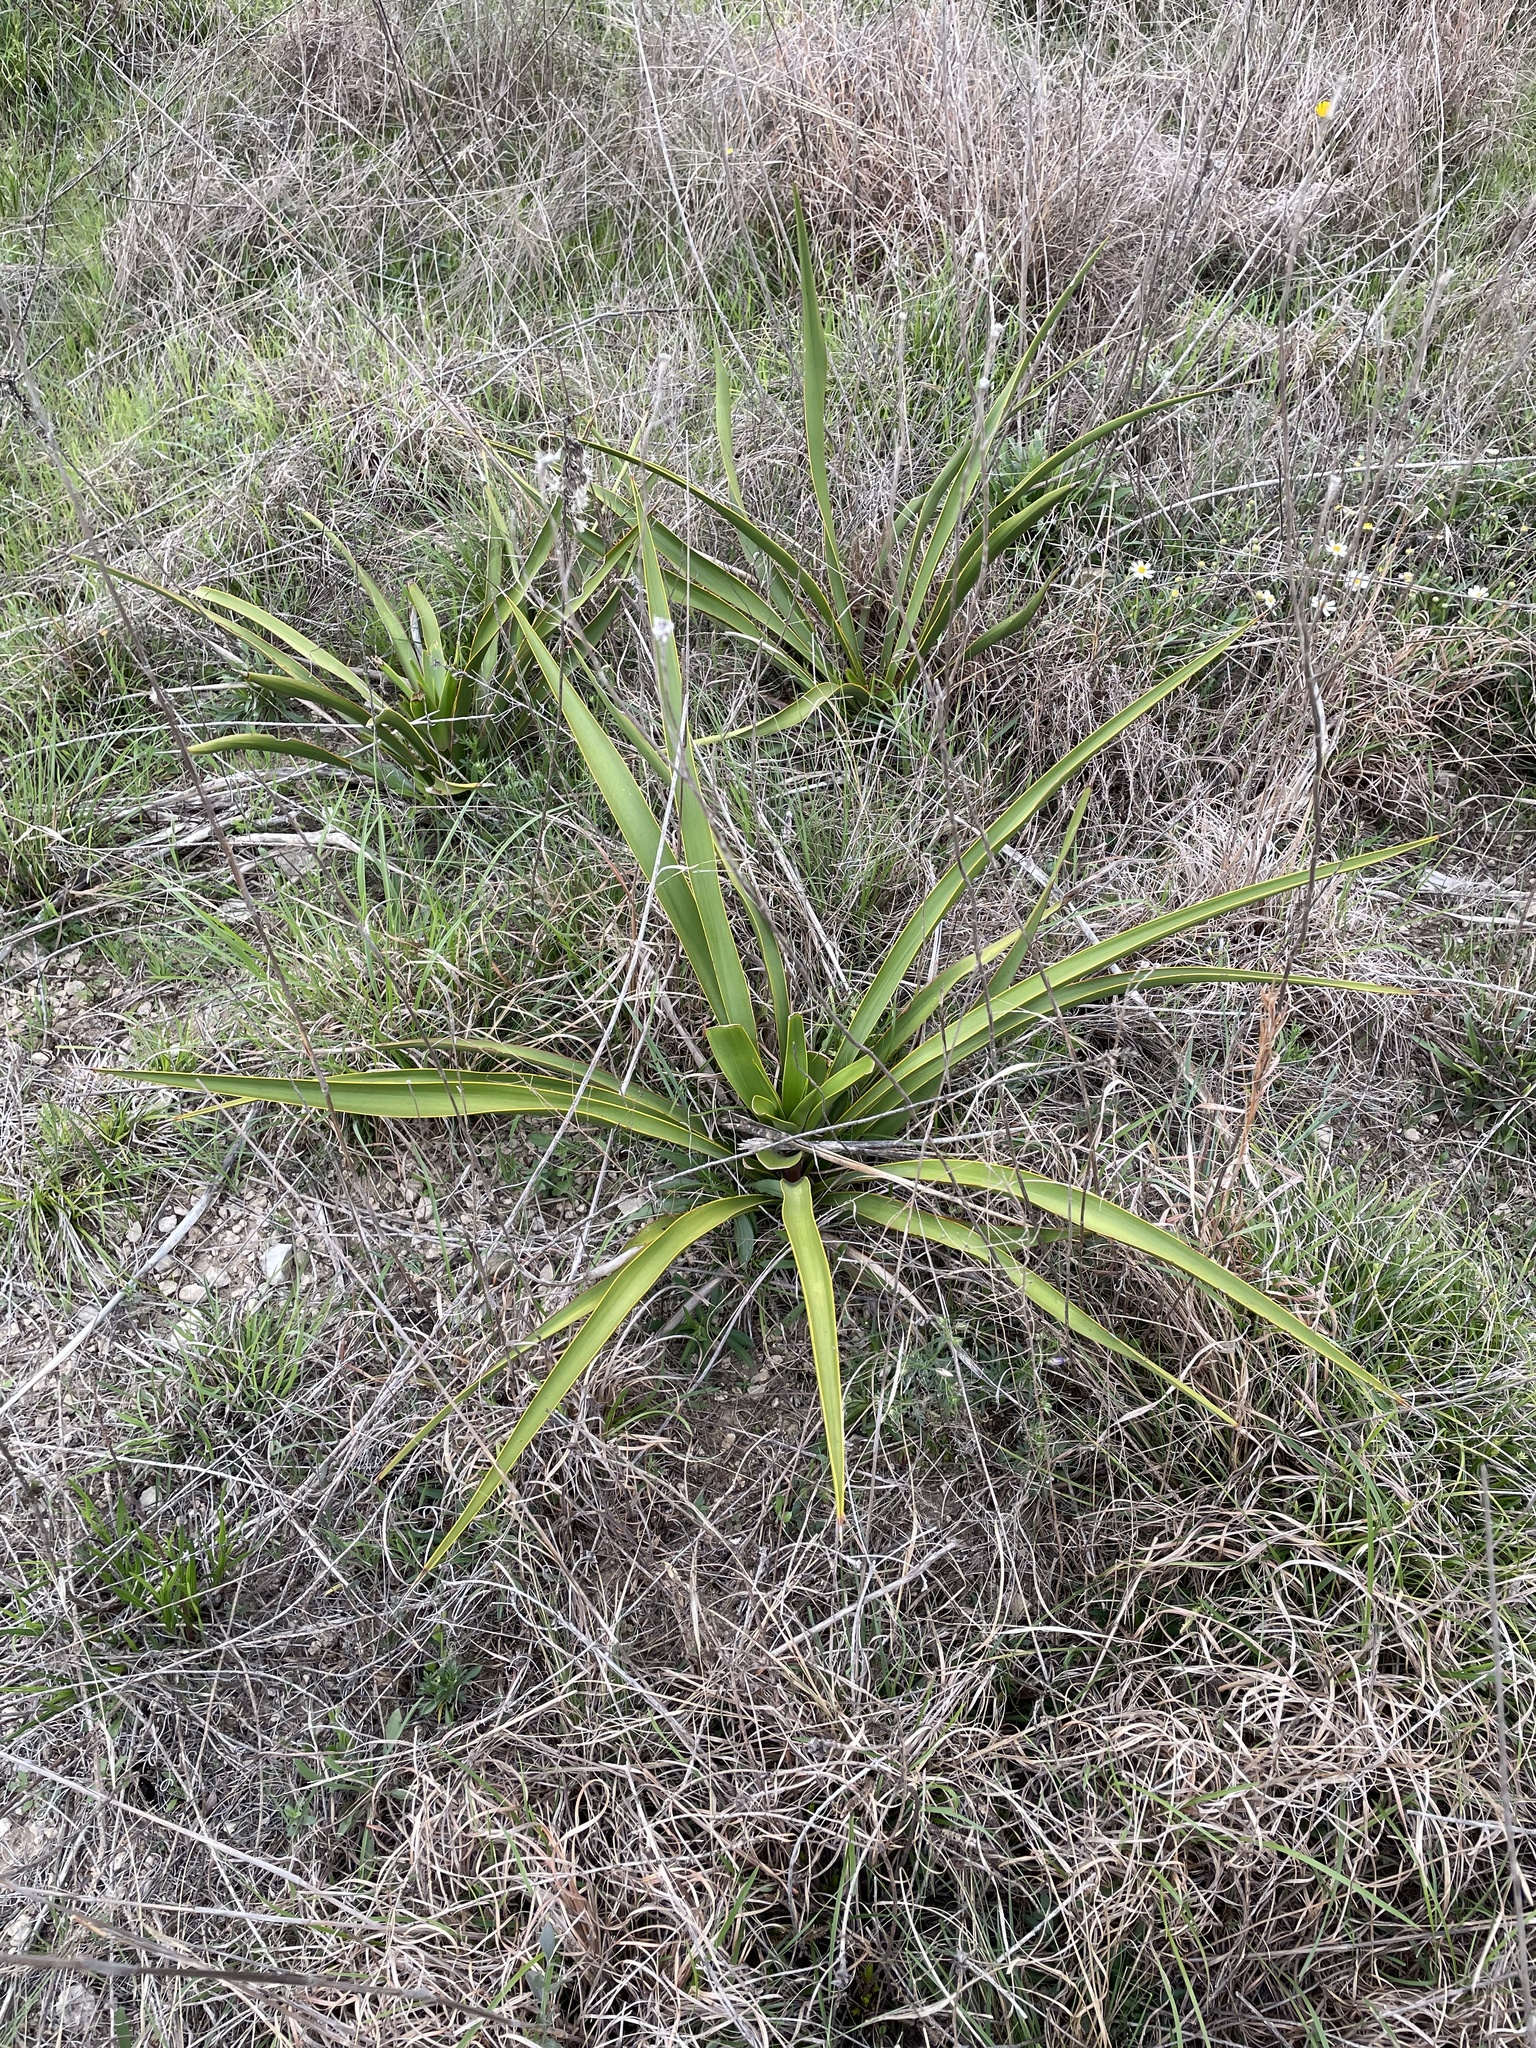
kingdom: Plantae
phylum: Tracheophyta
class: Liliopsida
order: Asparagales
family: Asparagaceae
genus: Yucca
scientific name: Yucca rupicola
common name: Twisted-leaf spanish-dagger
